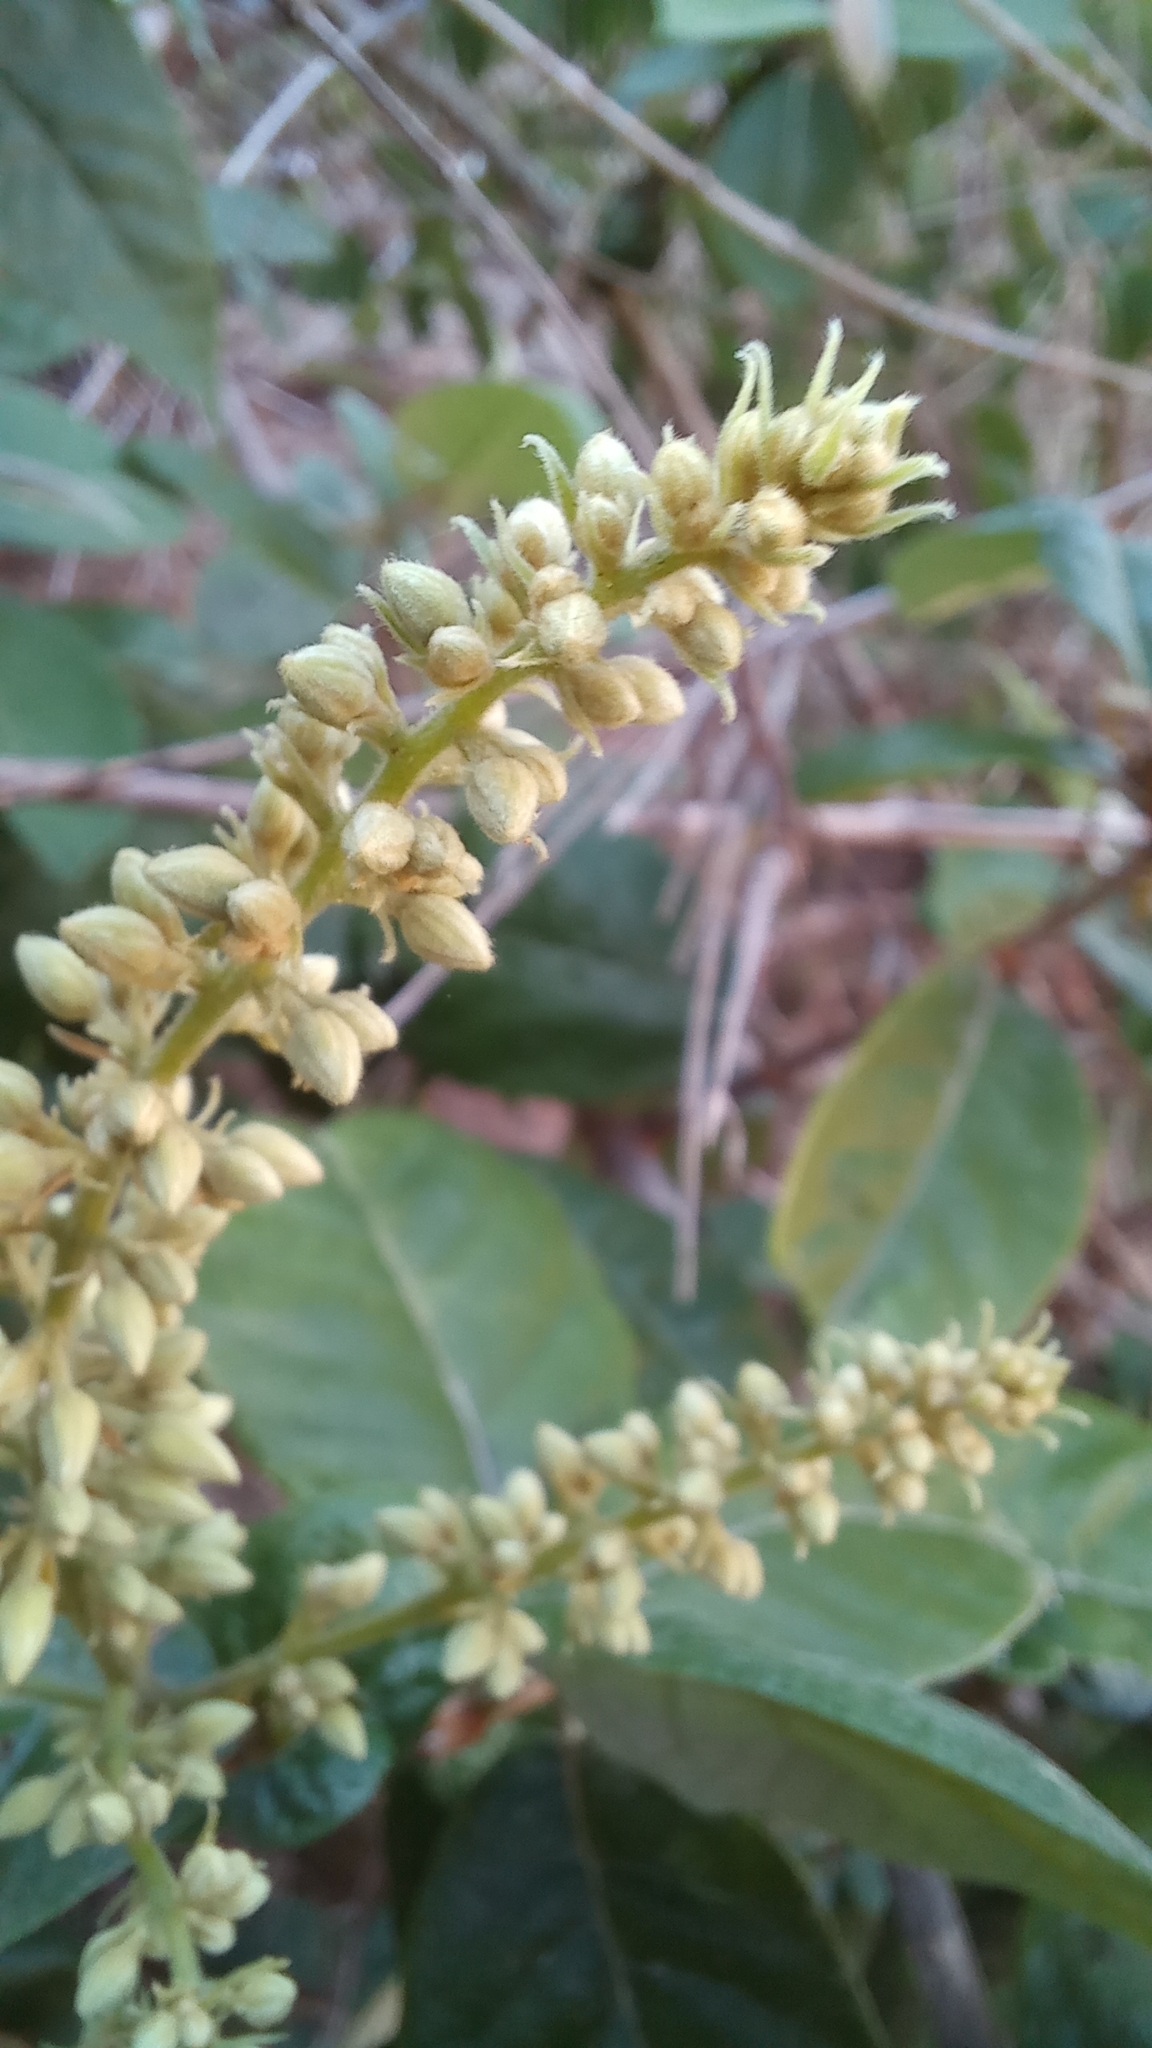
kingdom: Plantae
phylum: Tracheophyta
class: Magnoliopsida
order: Malpighiales
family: Trigoniaceae
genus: Trigonia
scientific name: Trigonia nivea
